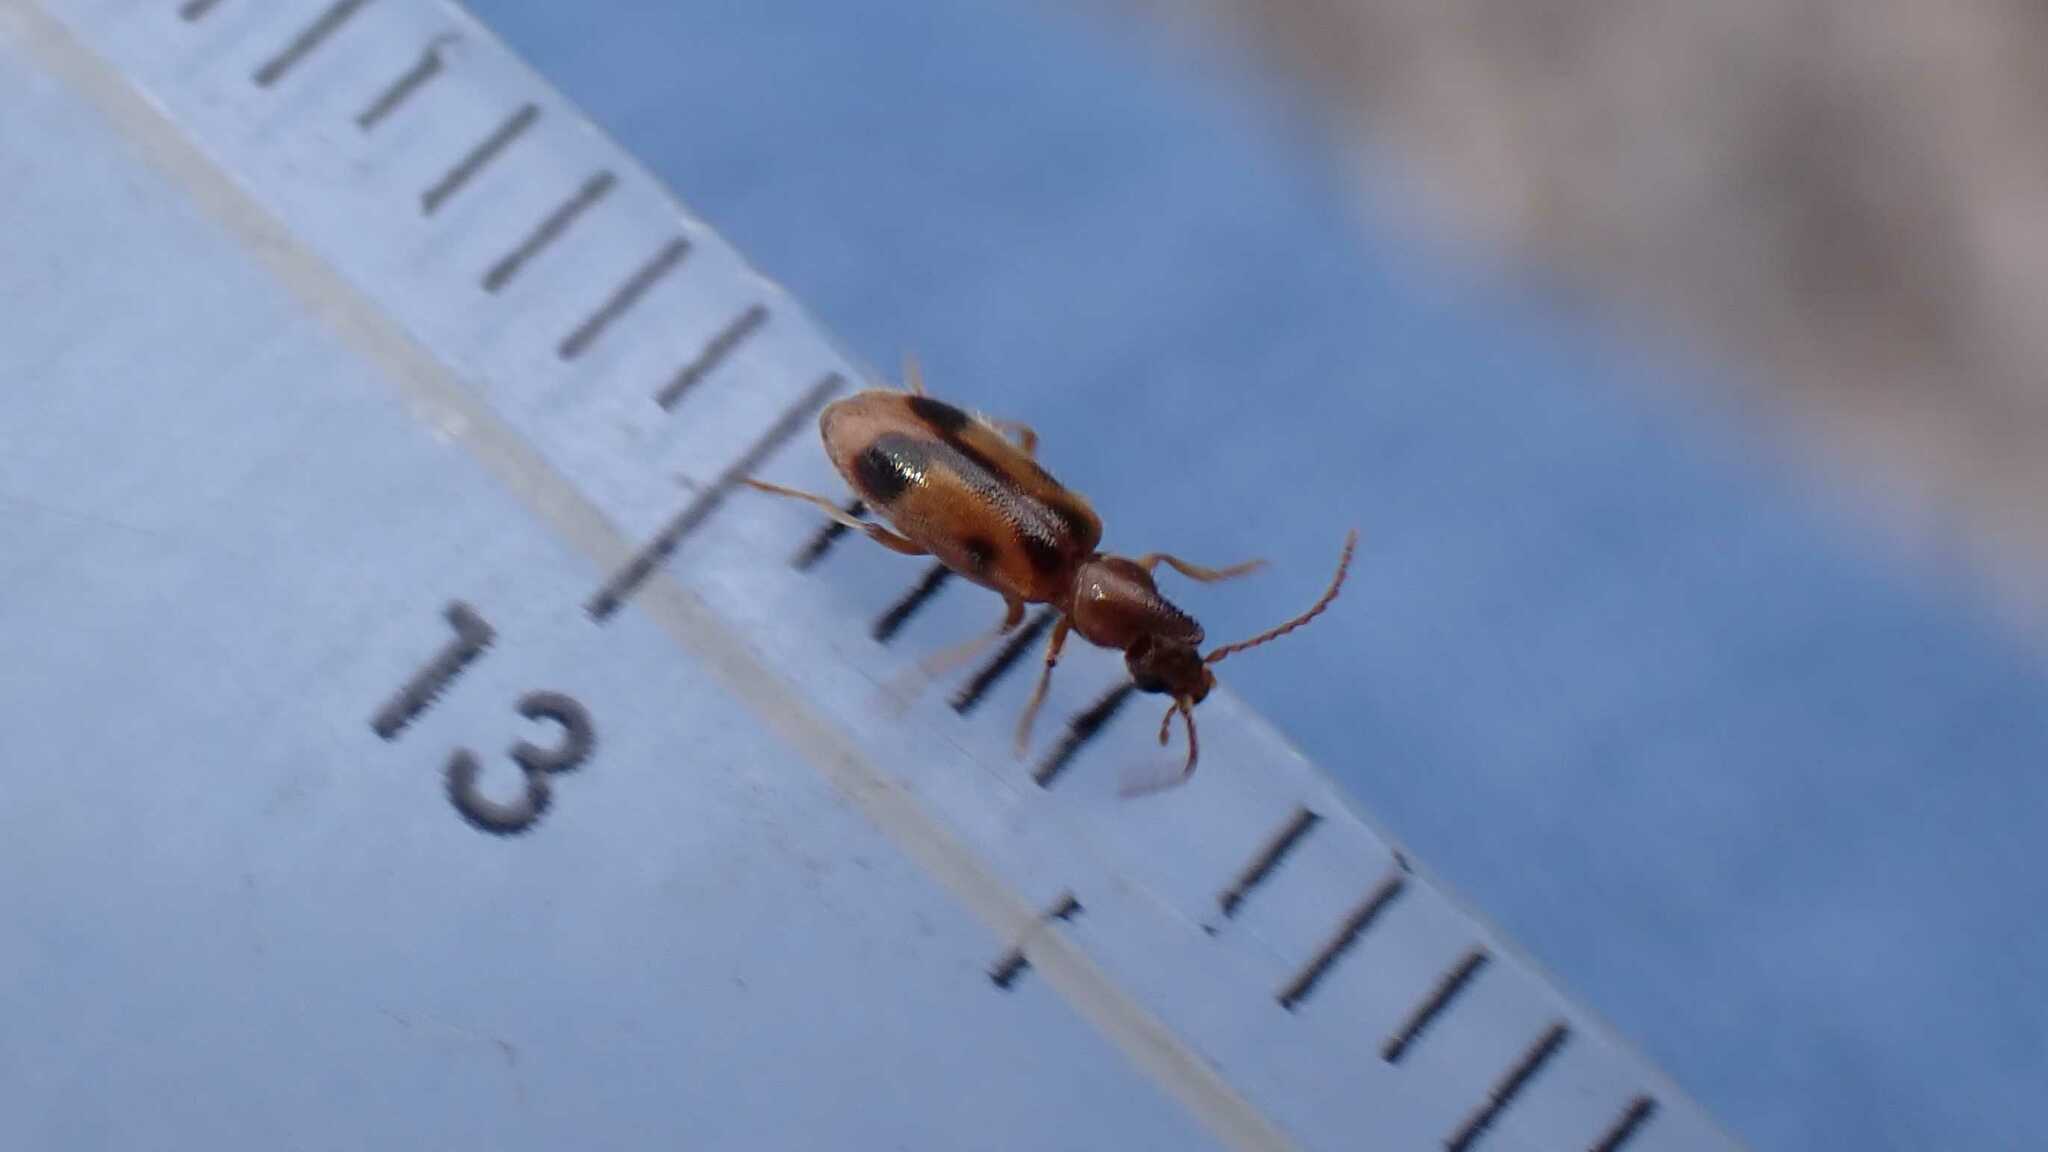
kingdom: Animalia
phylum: Arthropoda
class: Insecta
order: Coleoptera
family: Anthicidae
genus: Notoxus
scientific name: Notoxus monoceros
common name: Monoceros beetle
